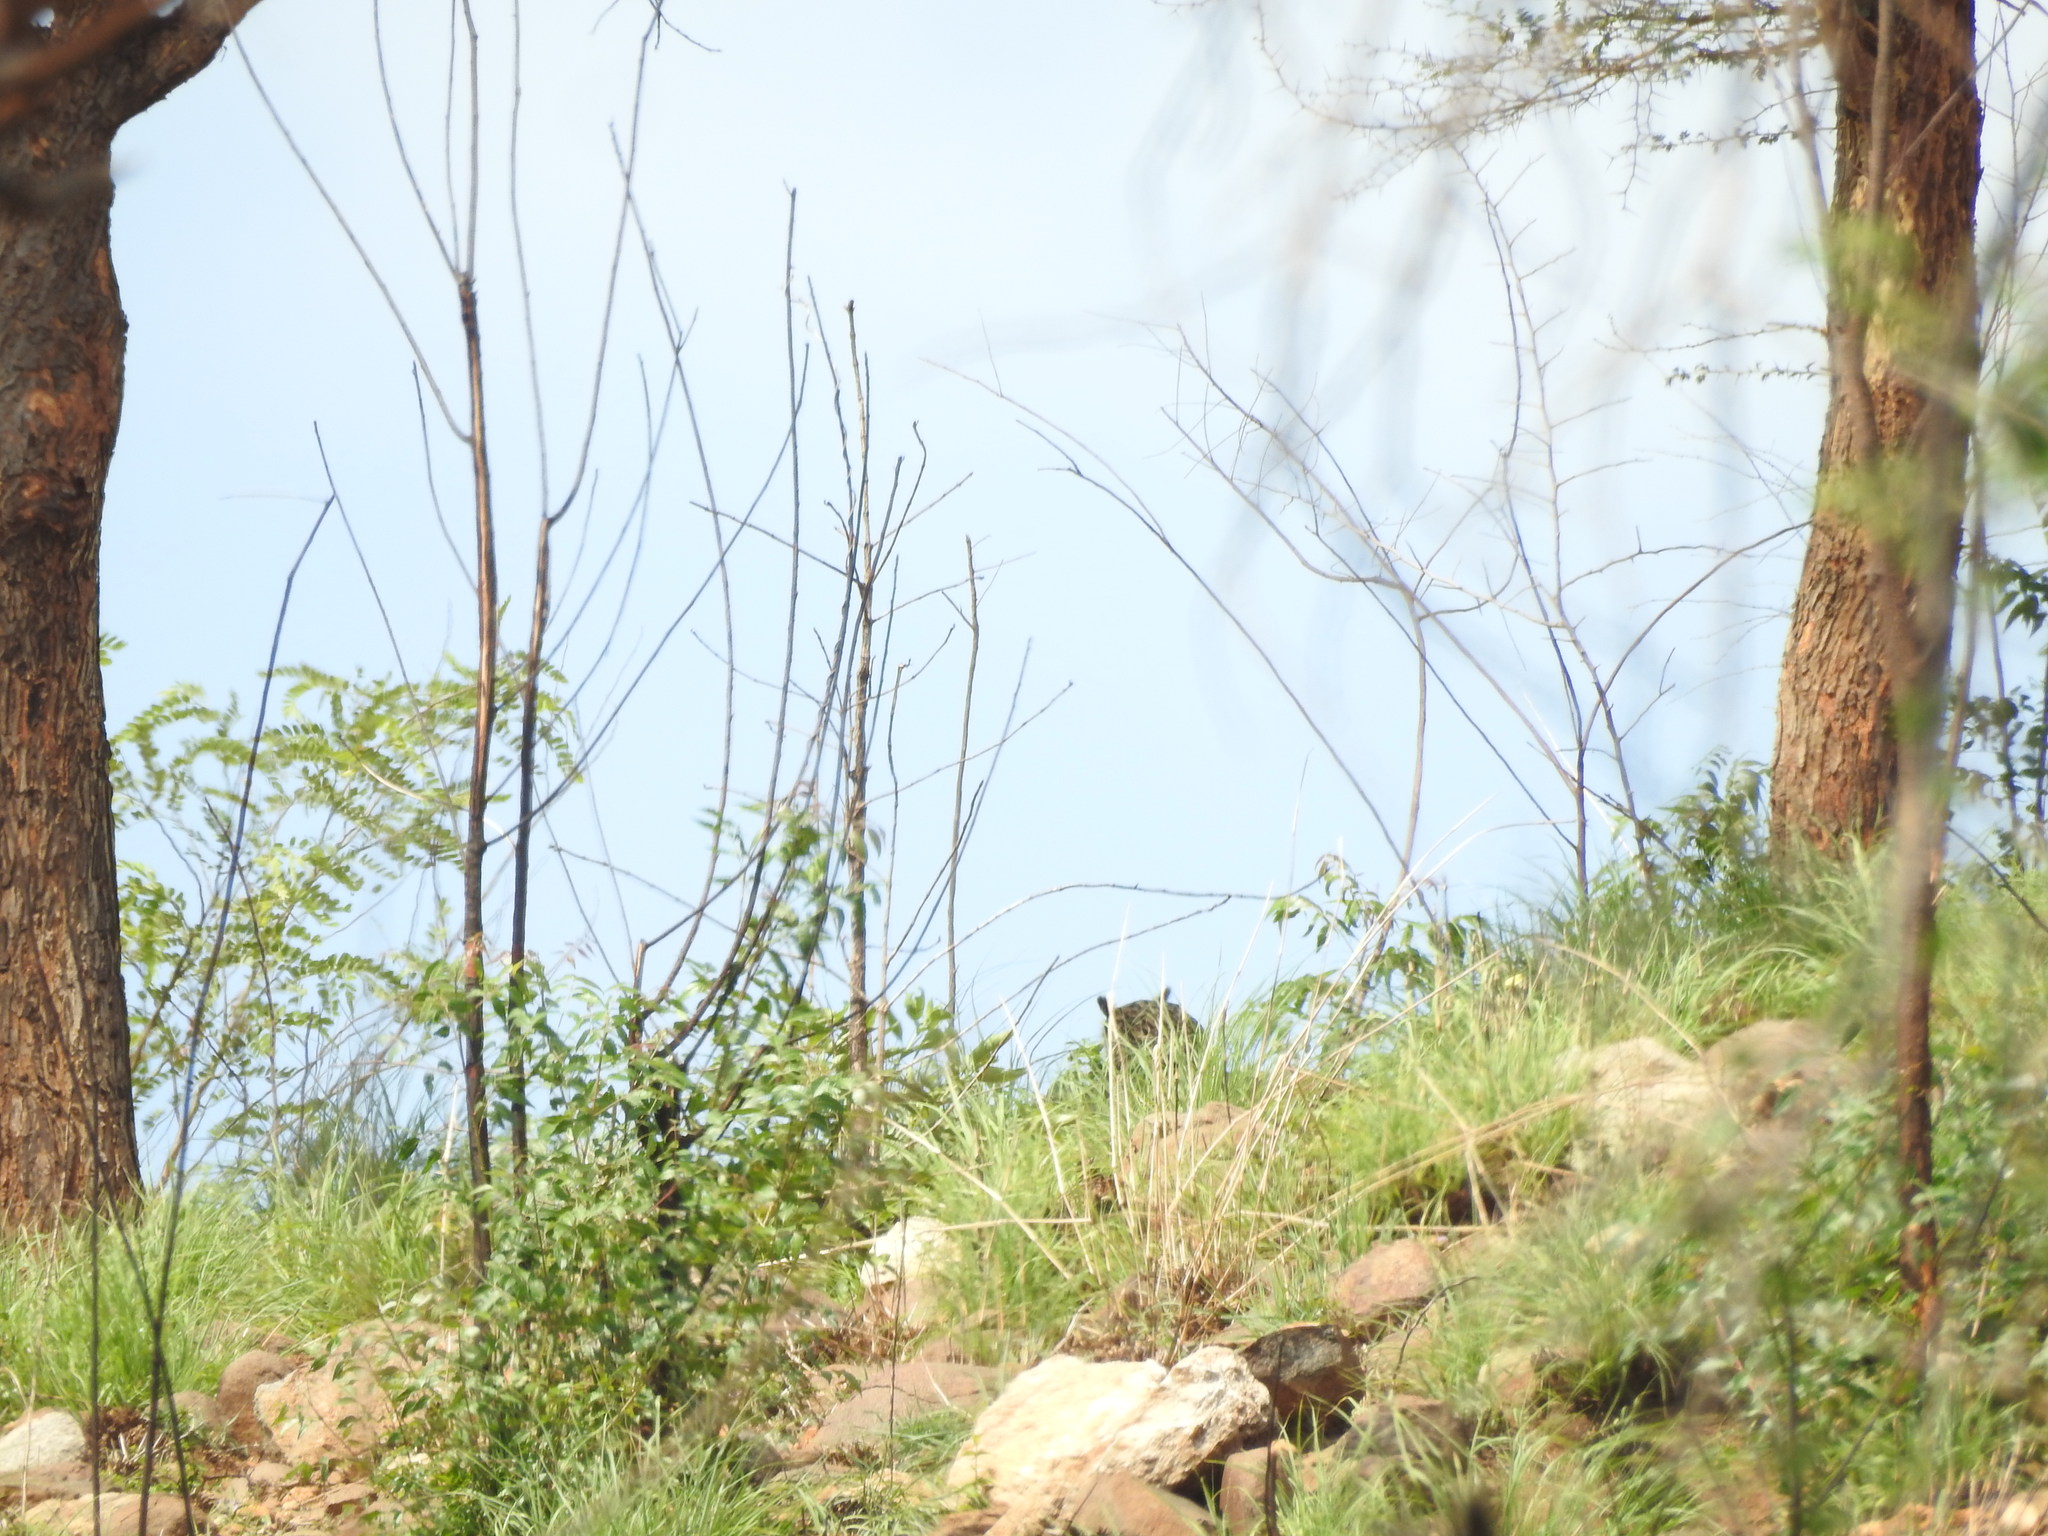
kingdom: Animalia
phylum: Chordata
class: Aves
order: Strigiformes
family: Strigidae
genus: Bubo
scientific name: Bubo bengalensis
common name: Indian eagle-owl
